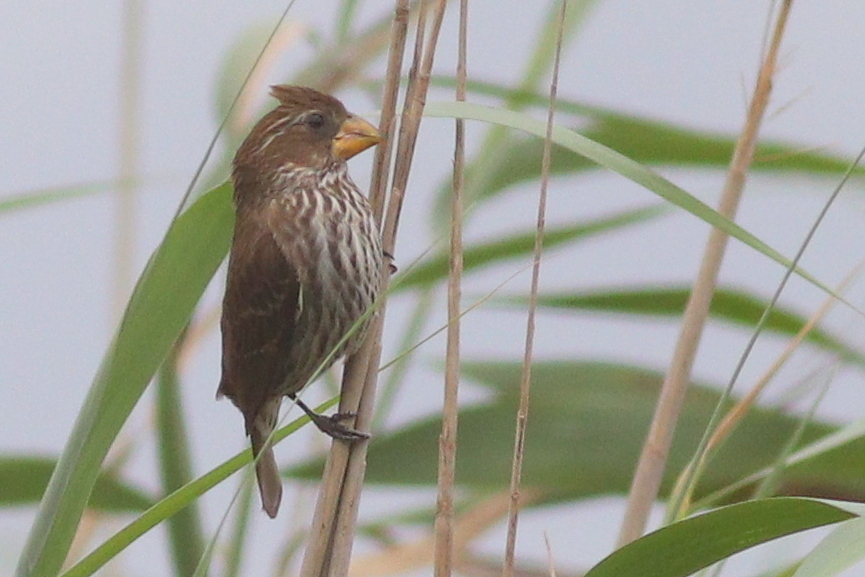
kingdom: Animalia
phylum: Chordata
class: Aves
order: Passeriformes
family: Ploceidae
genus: Amblyospiza
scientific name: Amblyospiza albifrons
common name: Thick-billed weaver
